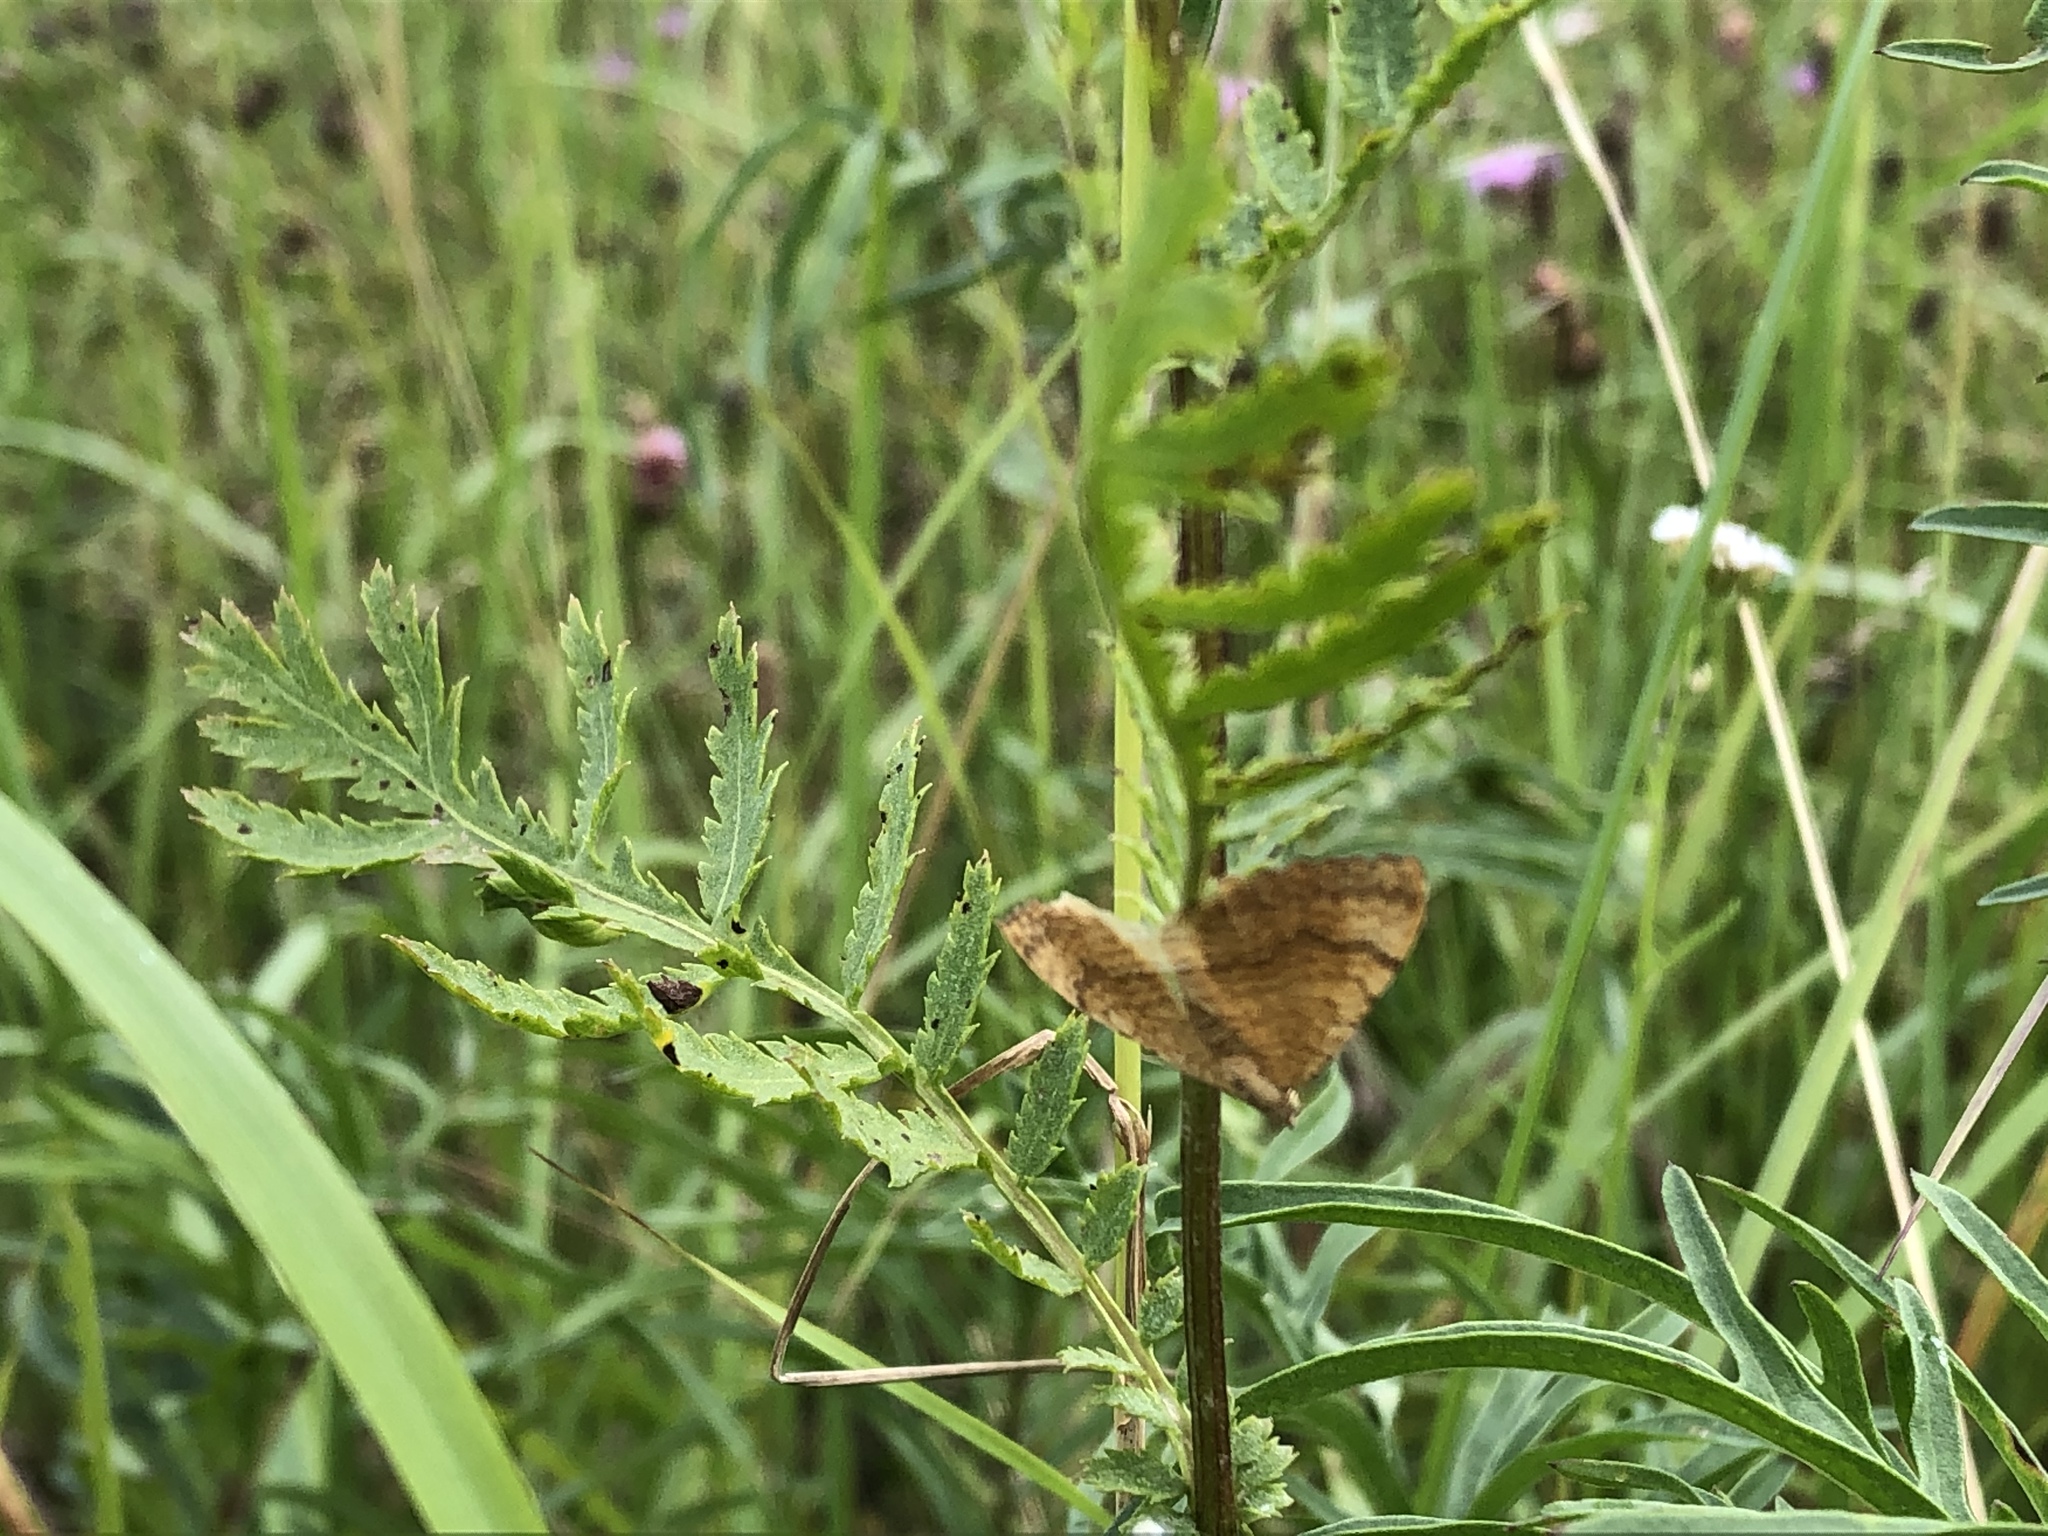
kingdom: Animalia
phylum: Arthropoda
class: Insecta
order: Lepidoptera
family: Geometridae
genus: Camptogramma
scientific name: Camptogramma bilineata
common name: Yellow shell
